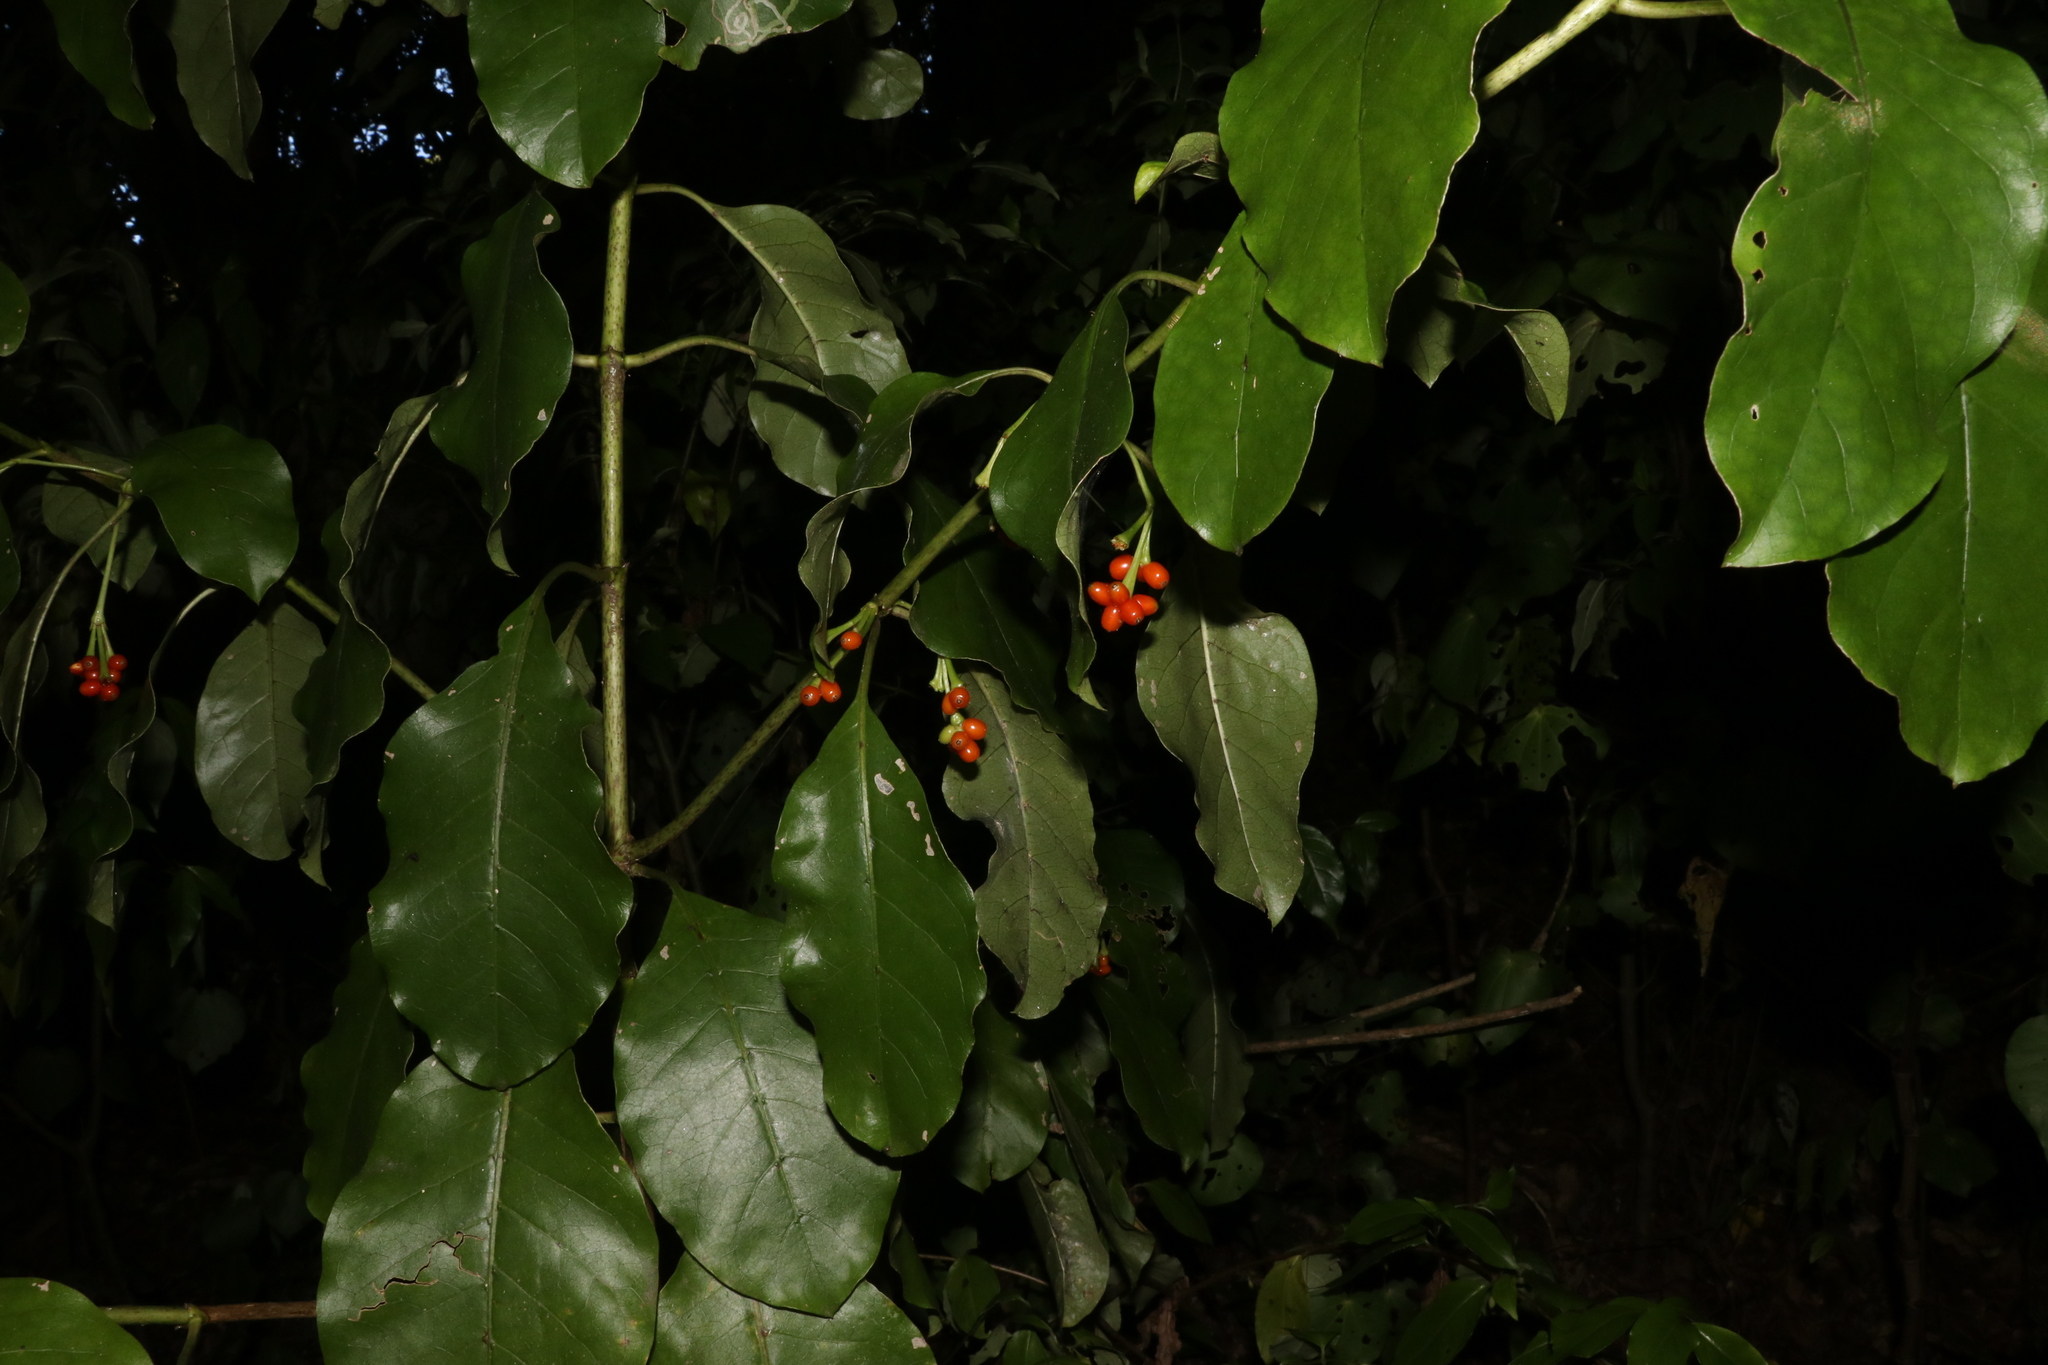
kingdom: Plantae
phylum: Tracheophyta
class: Magnoliopsida
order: Gentianales
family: Rubiaceae
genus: Coprosma
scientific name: Coprosma autumnalis
